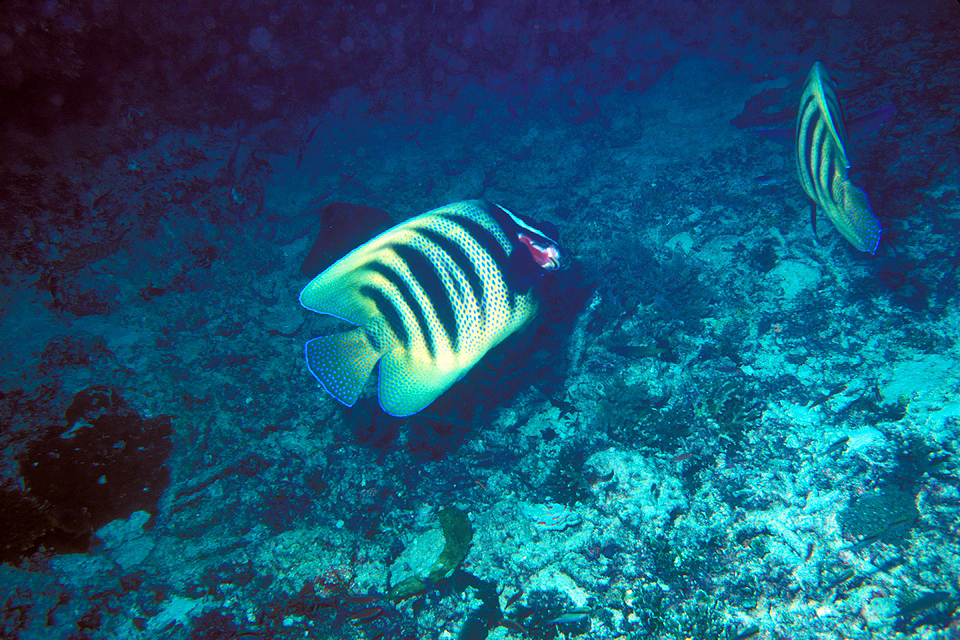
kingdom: Animalia
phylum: Chordata
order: Perciformes
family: Pomacanthidae
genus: Pomacanthus
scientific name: Pomacanthus sexstriatus
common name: Six-banded angelfish
